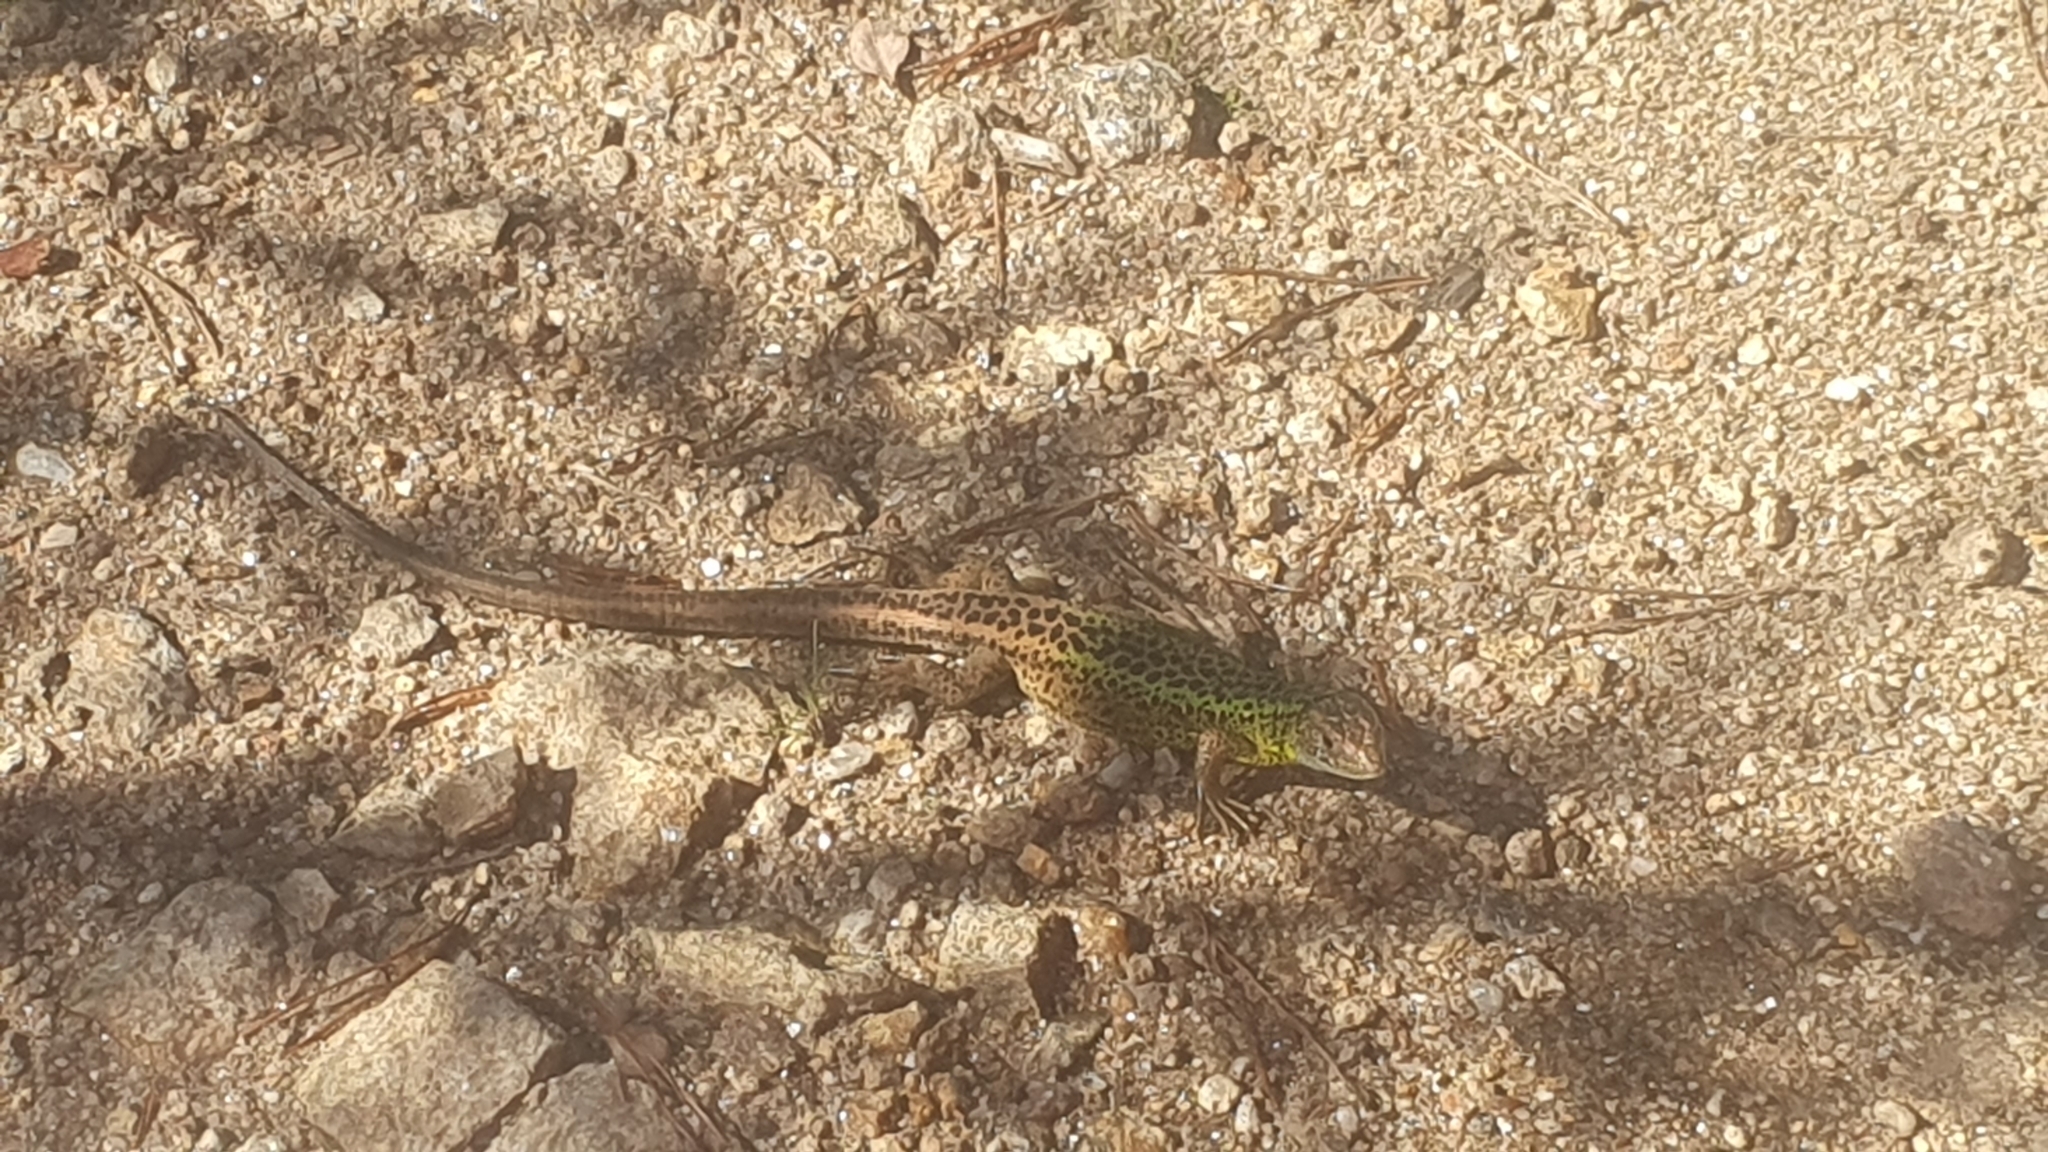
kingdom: Animalia
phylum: Chordata
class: Squamata
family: Lacertidae
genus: Lacerta
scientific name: Lacerta schreiberi
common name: Iberian emerald lizard
